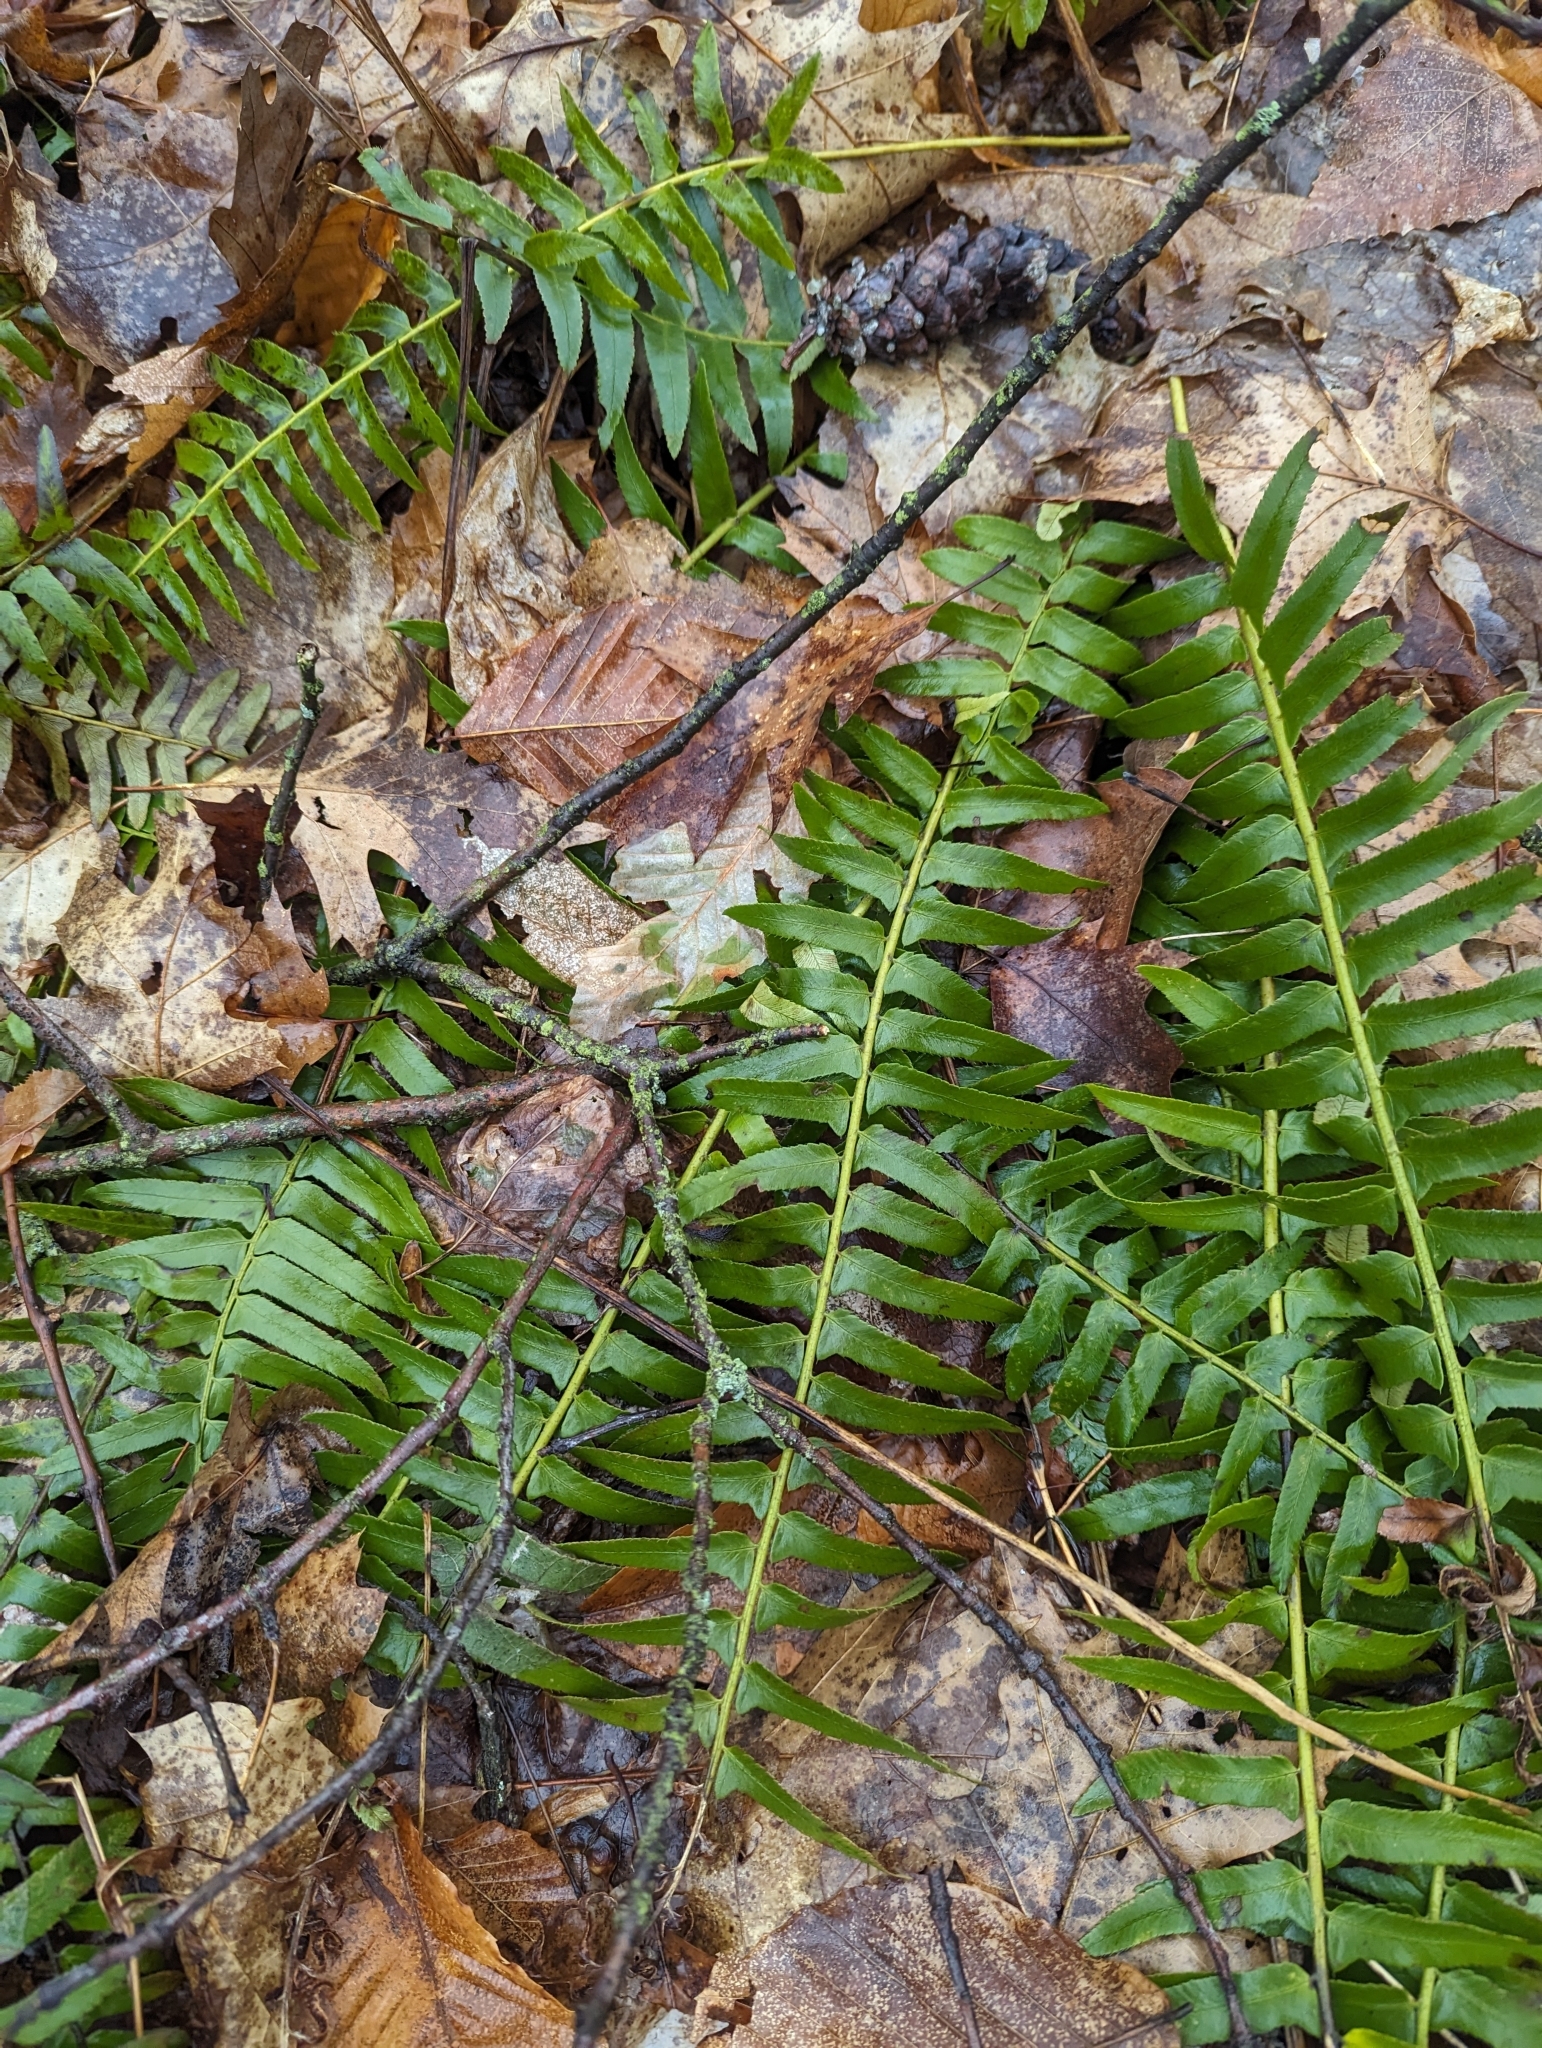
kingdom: Plantae
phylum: Tracheophyta
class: Polypodiopsida
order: Polypodiales
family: Dryopteridaceae
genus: Polystichum
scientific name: Polystichum acrostichoides
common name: Christmas fern
